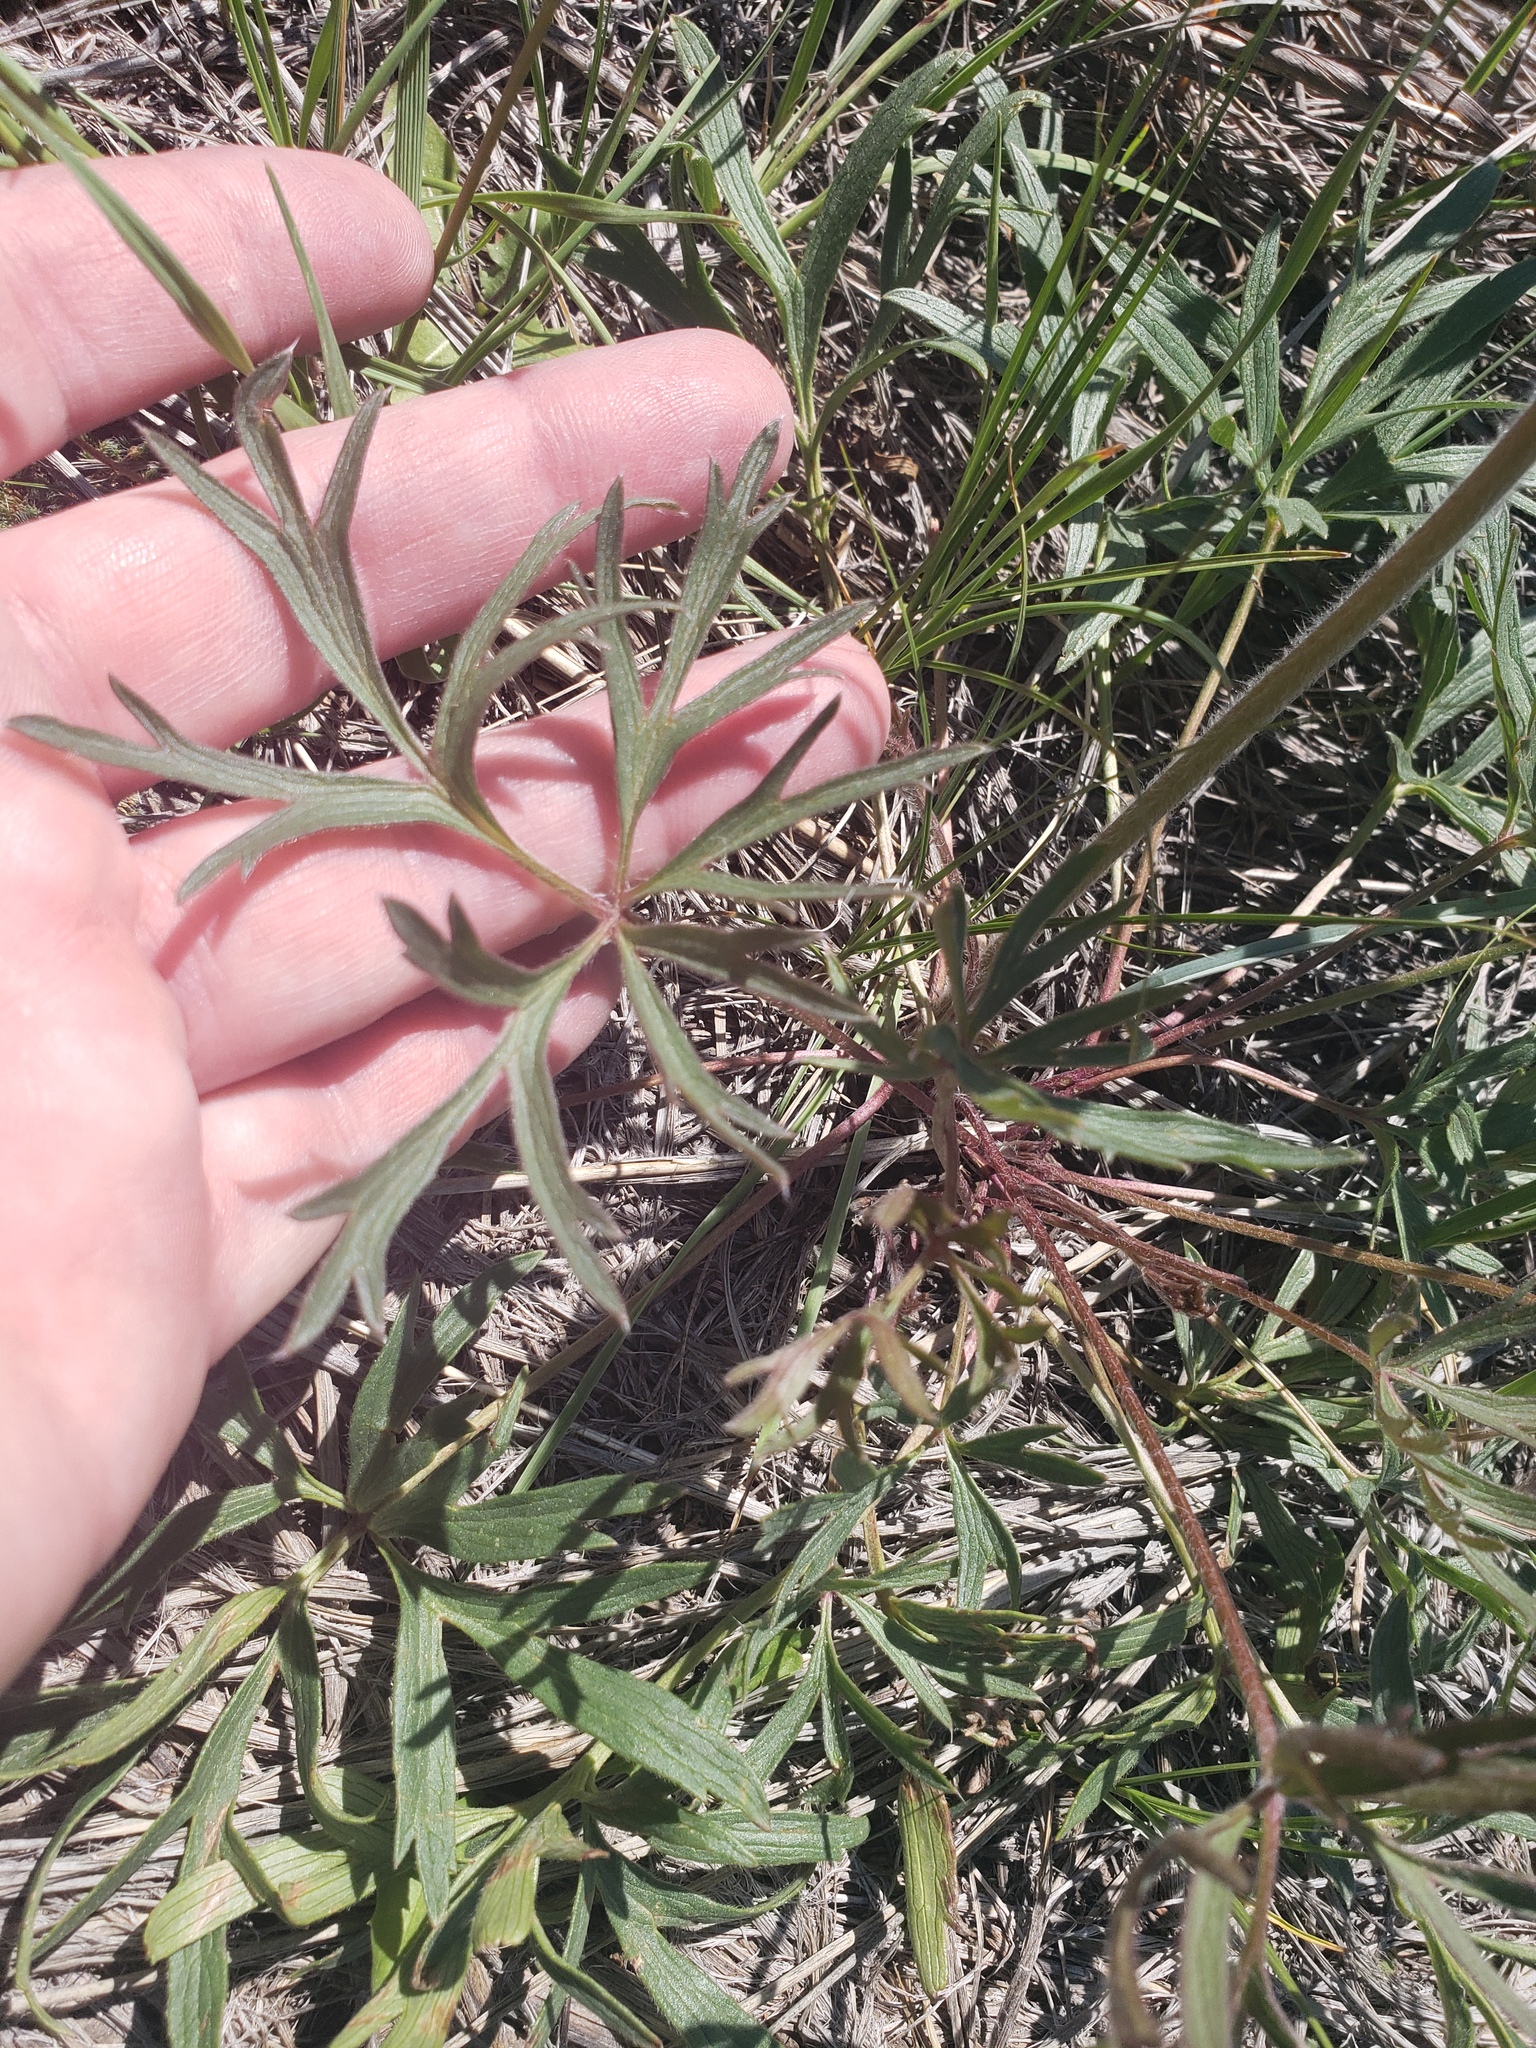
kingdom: Plantae
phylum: Tracheophyta
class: Magnoliopsida
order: Ranunculales
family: Ranunculaceae
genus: Pulsatilla
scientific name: Pulsatilla nuttalliana
